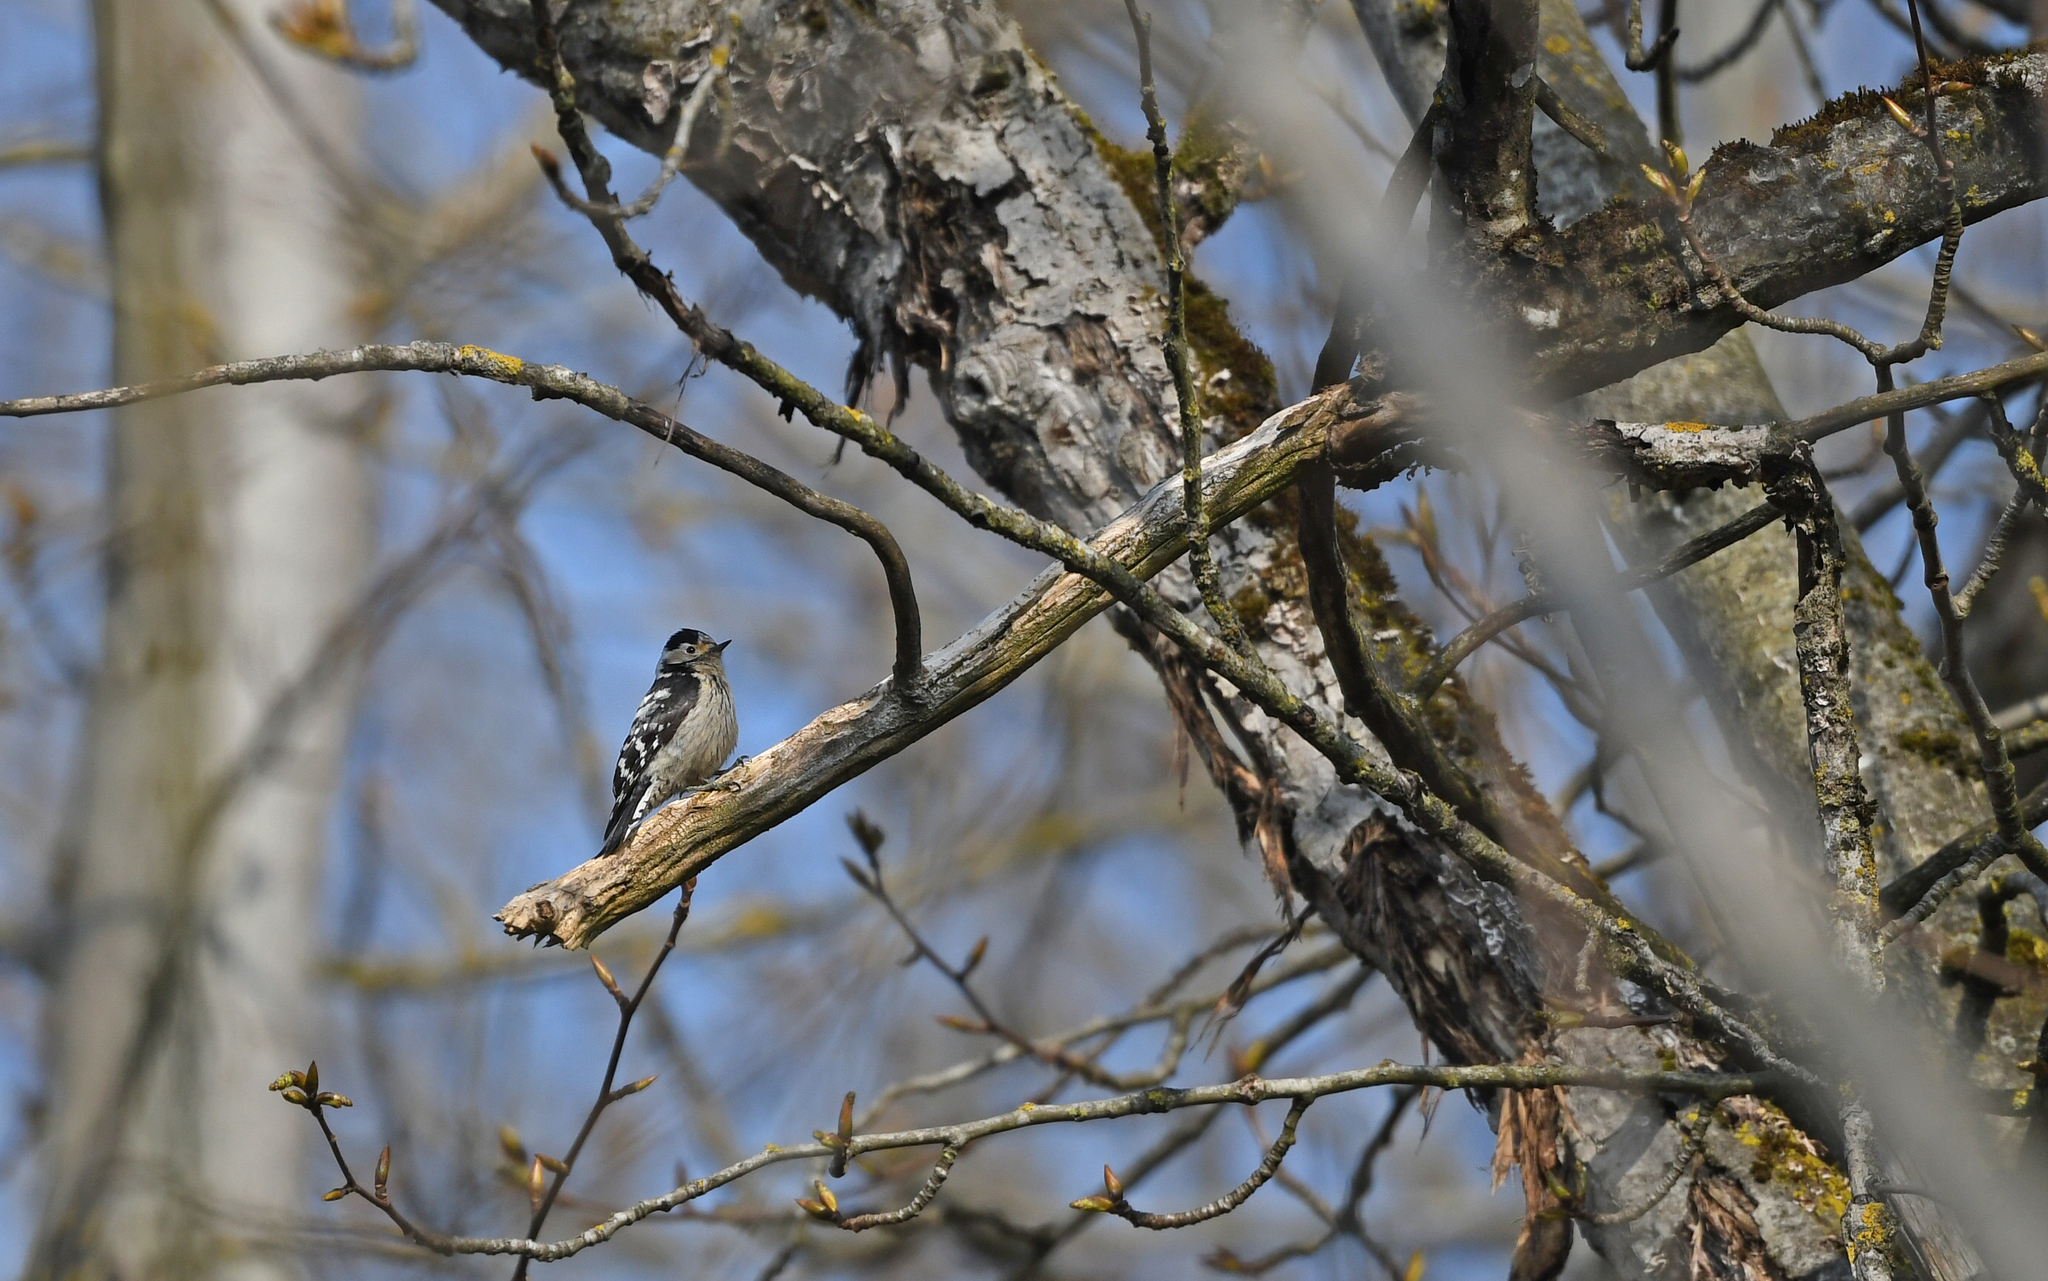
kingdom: Animalia
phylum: Chordata
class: Aves
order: Piciformes
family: Picidae
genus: Dryobates
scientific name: Dryobates minor
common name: Lesser spotted woodpecker
